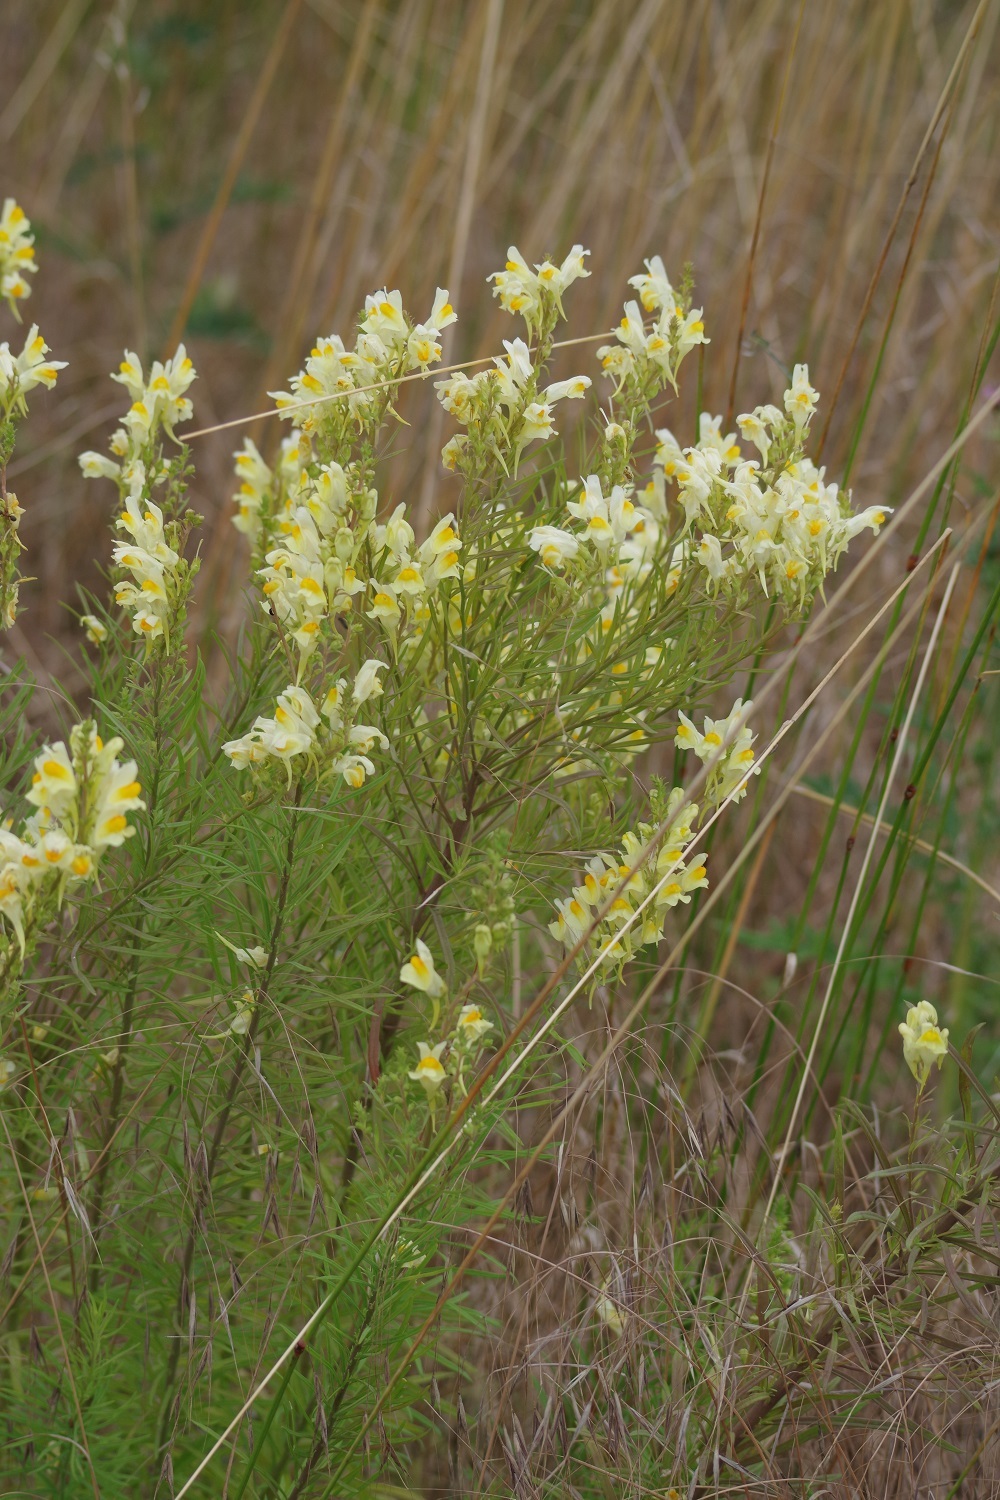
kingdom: Plantae
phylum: Tracheophyta
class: Magnoliopsida
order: Lamiales
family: Plantaginaceae
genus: Linaria
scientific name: Linaria vulgaris
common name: Butter and eggs
